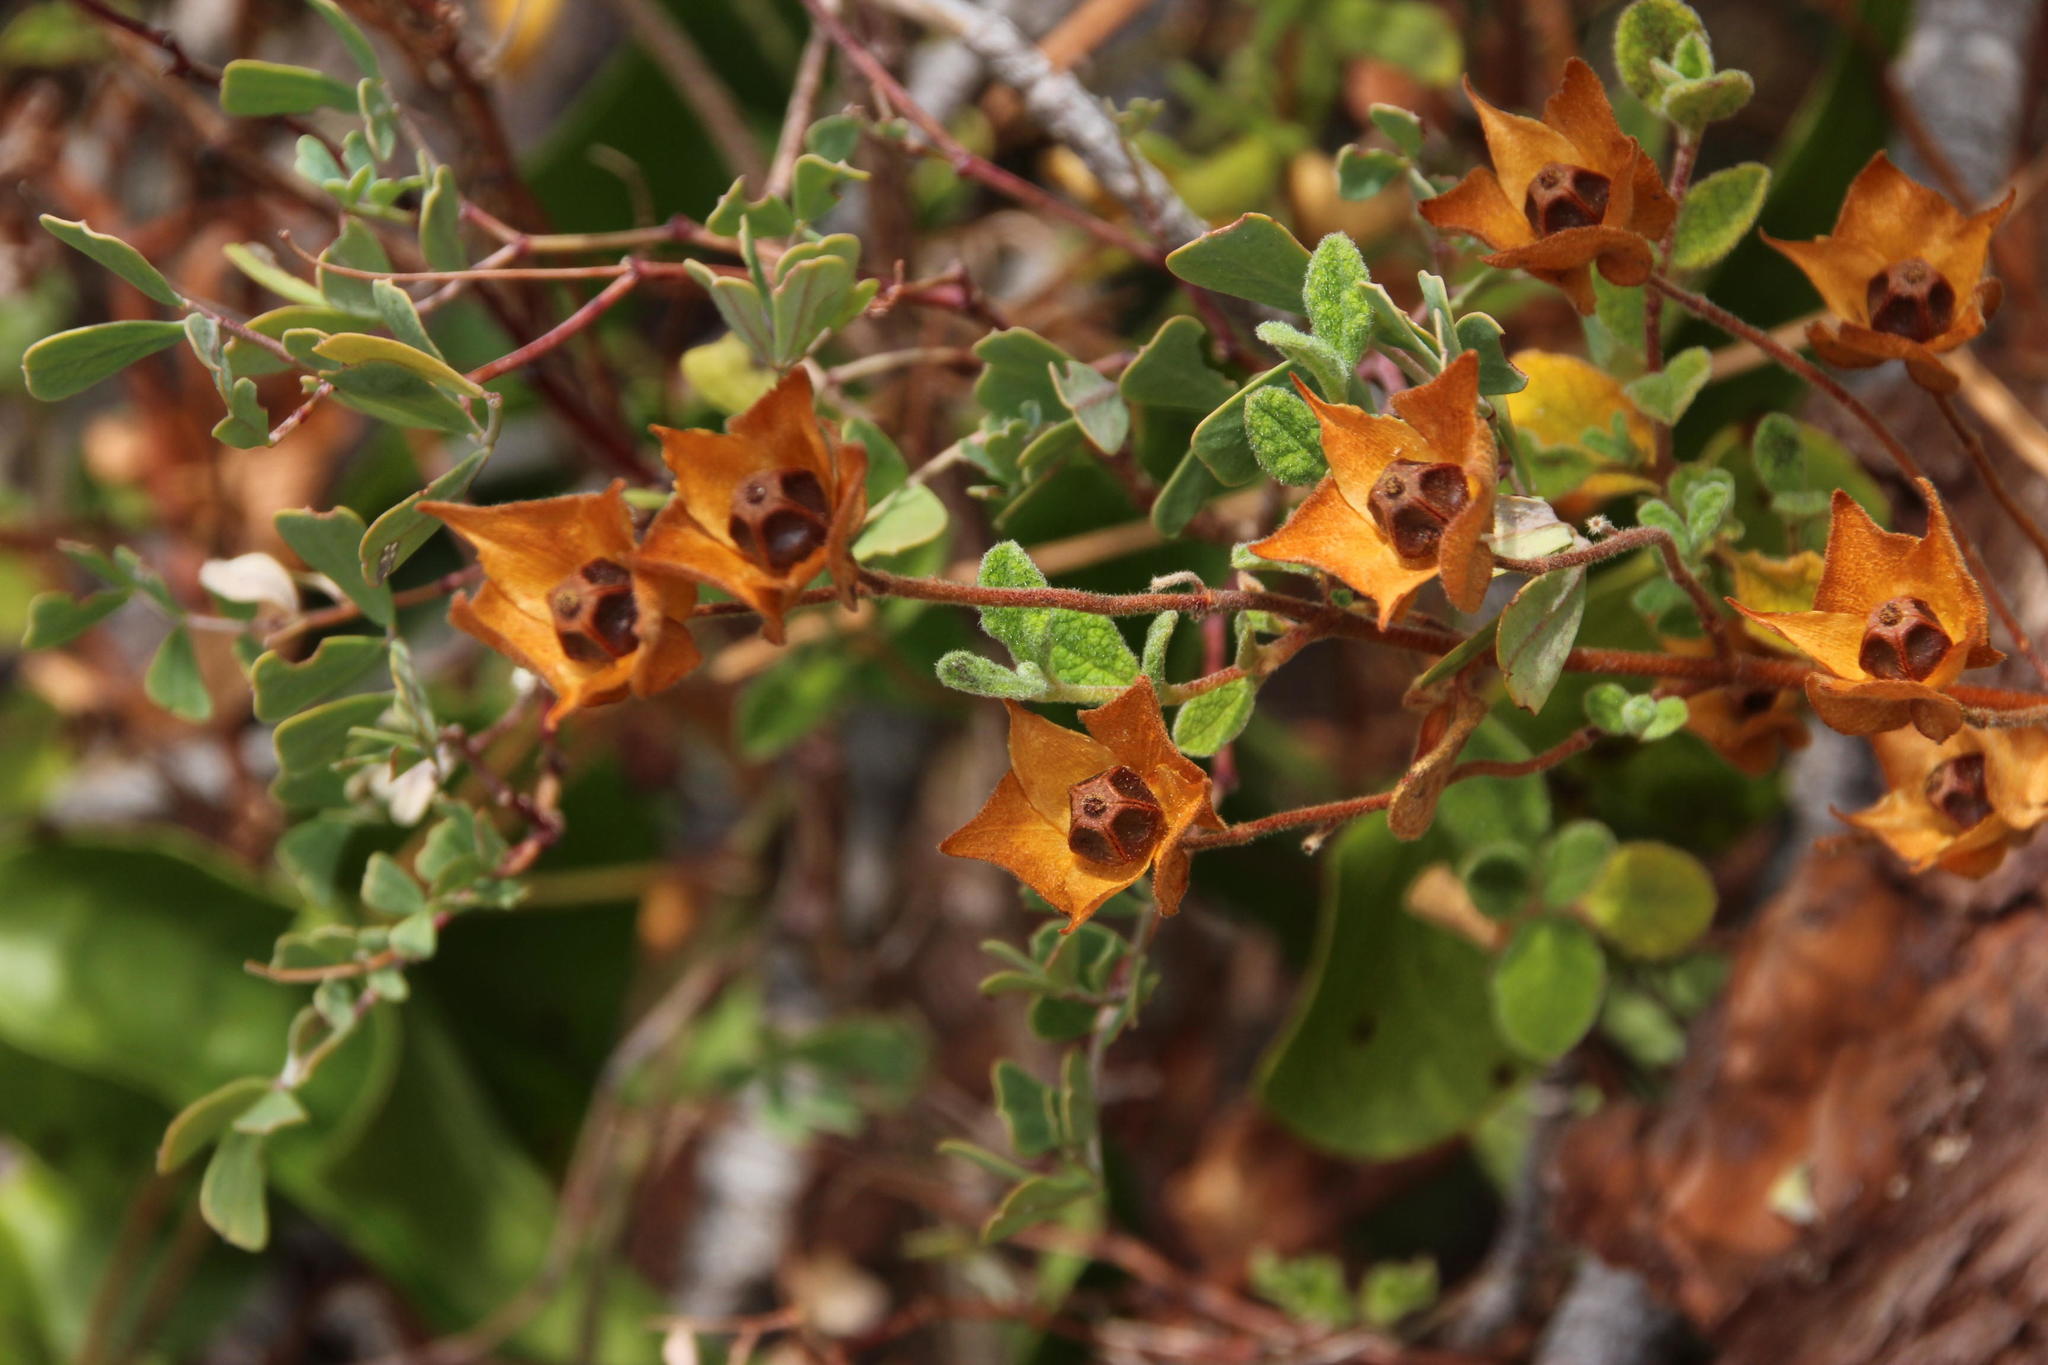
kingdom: Plantae
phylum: Tracheophyta
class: Magnoliopsida
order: Malvales
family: Cistaceae
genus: Cistus
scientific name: Cistus salviifolius
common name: Salvia cistus
